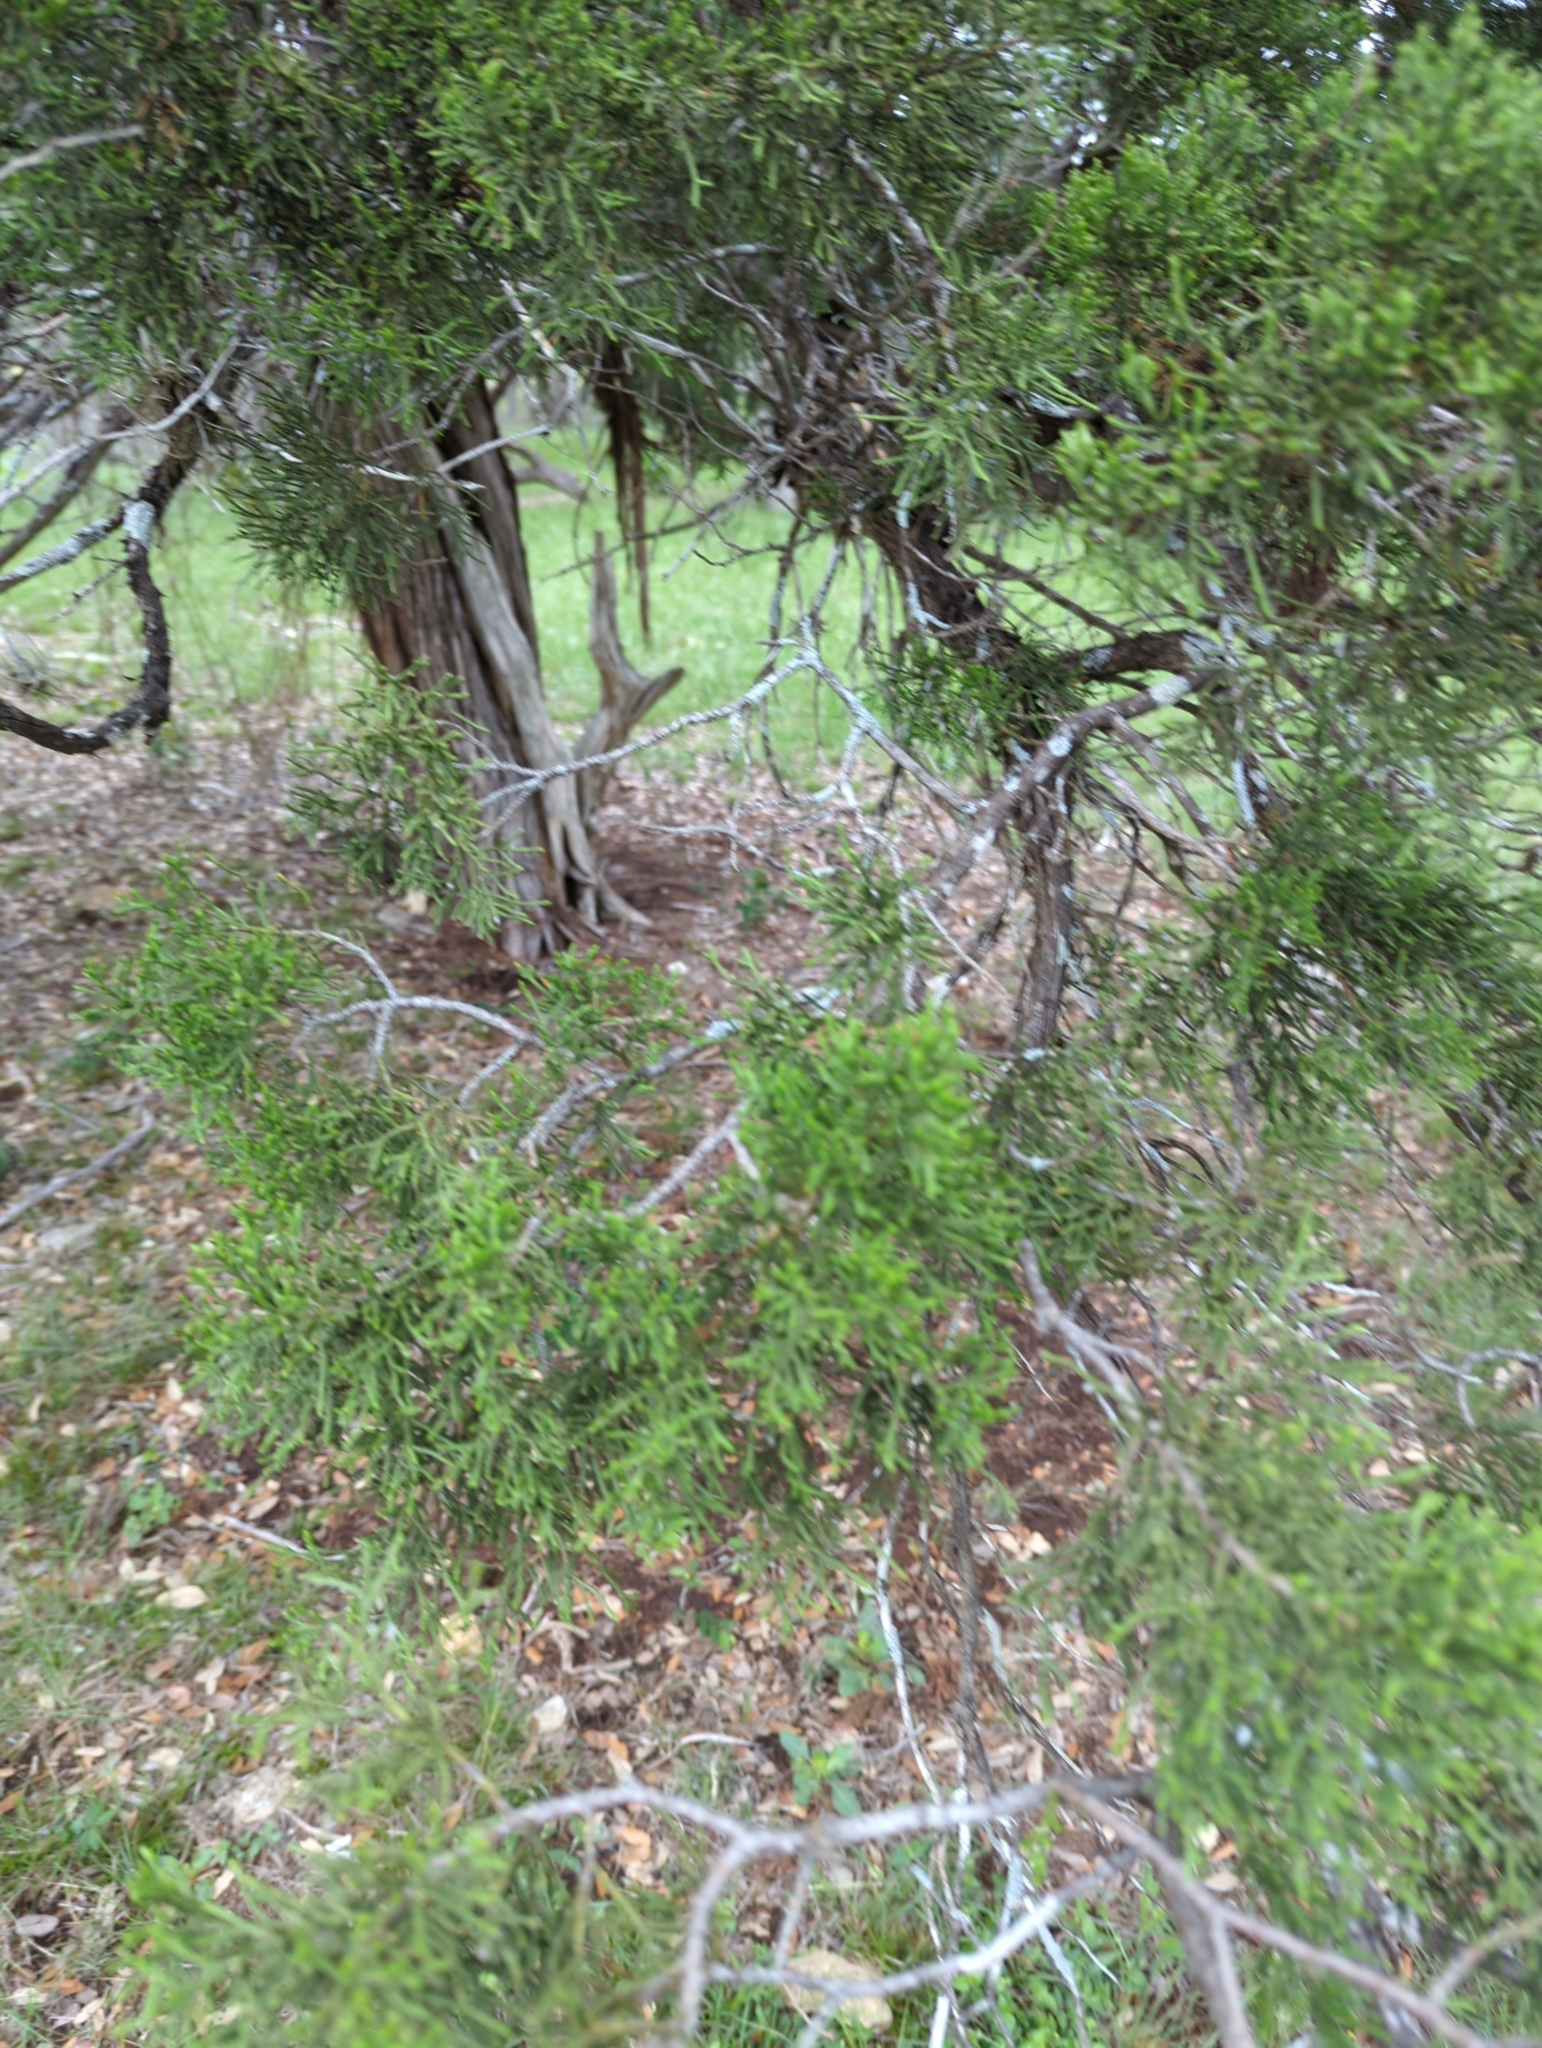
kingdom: Plantae
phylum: Tracheophyta
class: Pinopsida
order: Pinales
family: Cupressaceae
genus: Juniperus
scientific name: Juniperus ashei
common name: Mexican juniper
